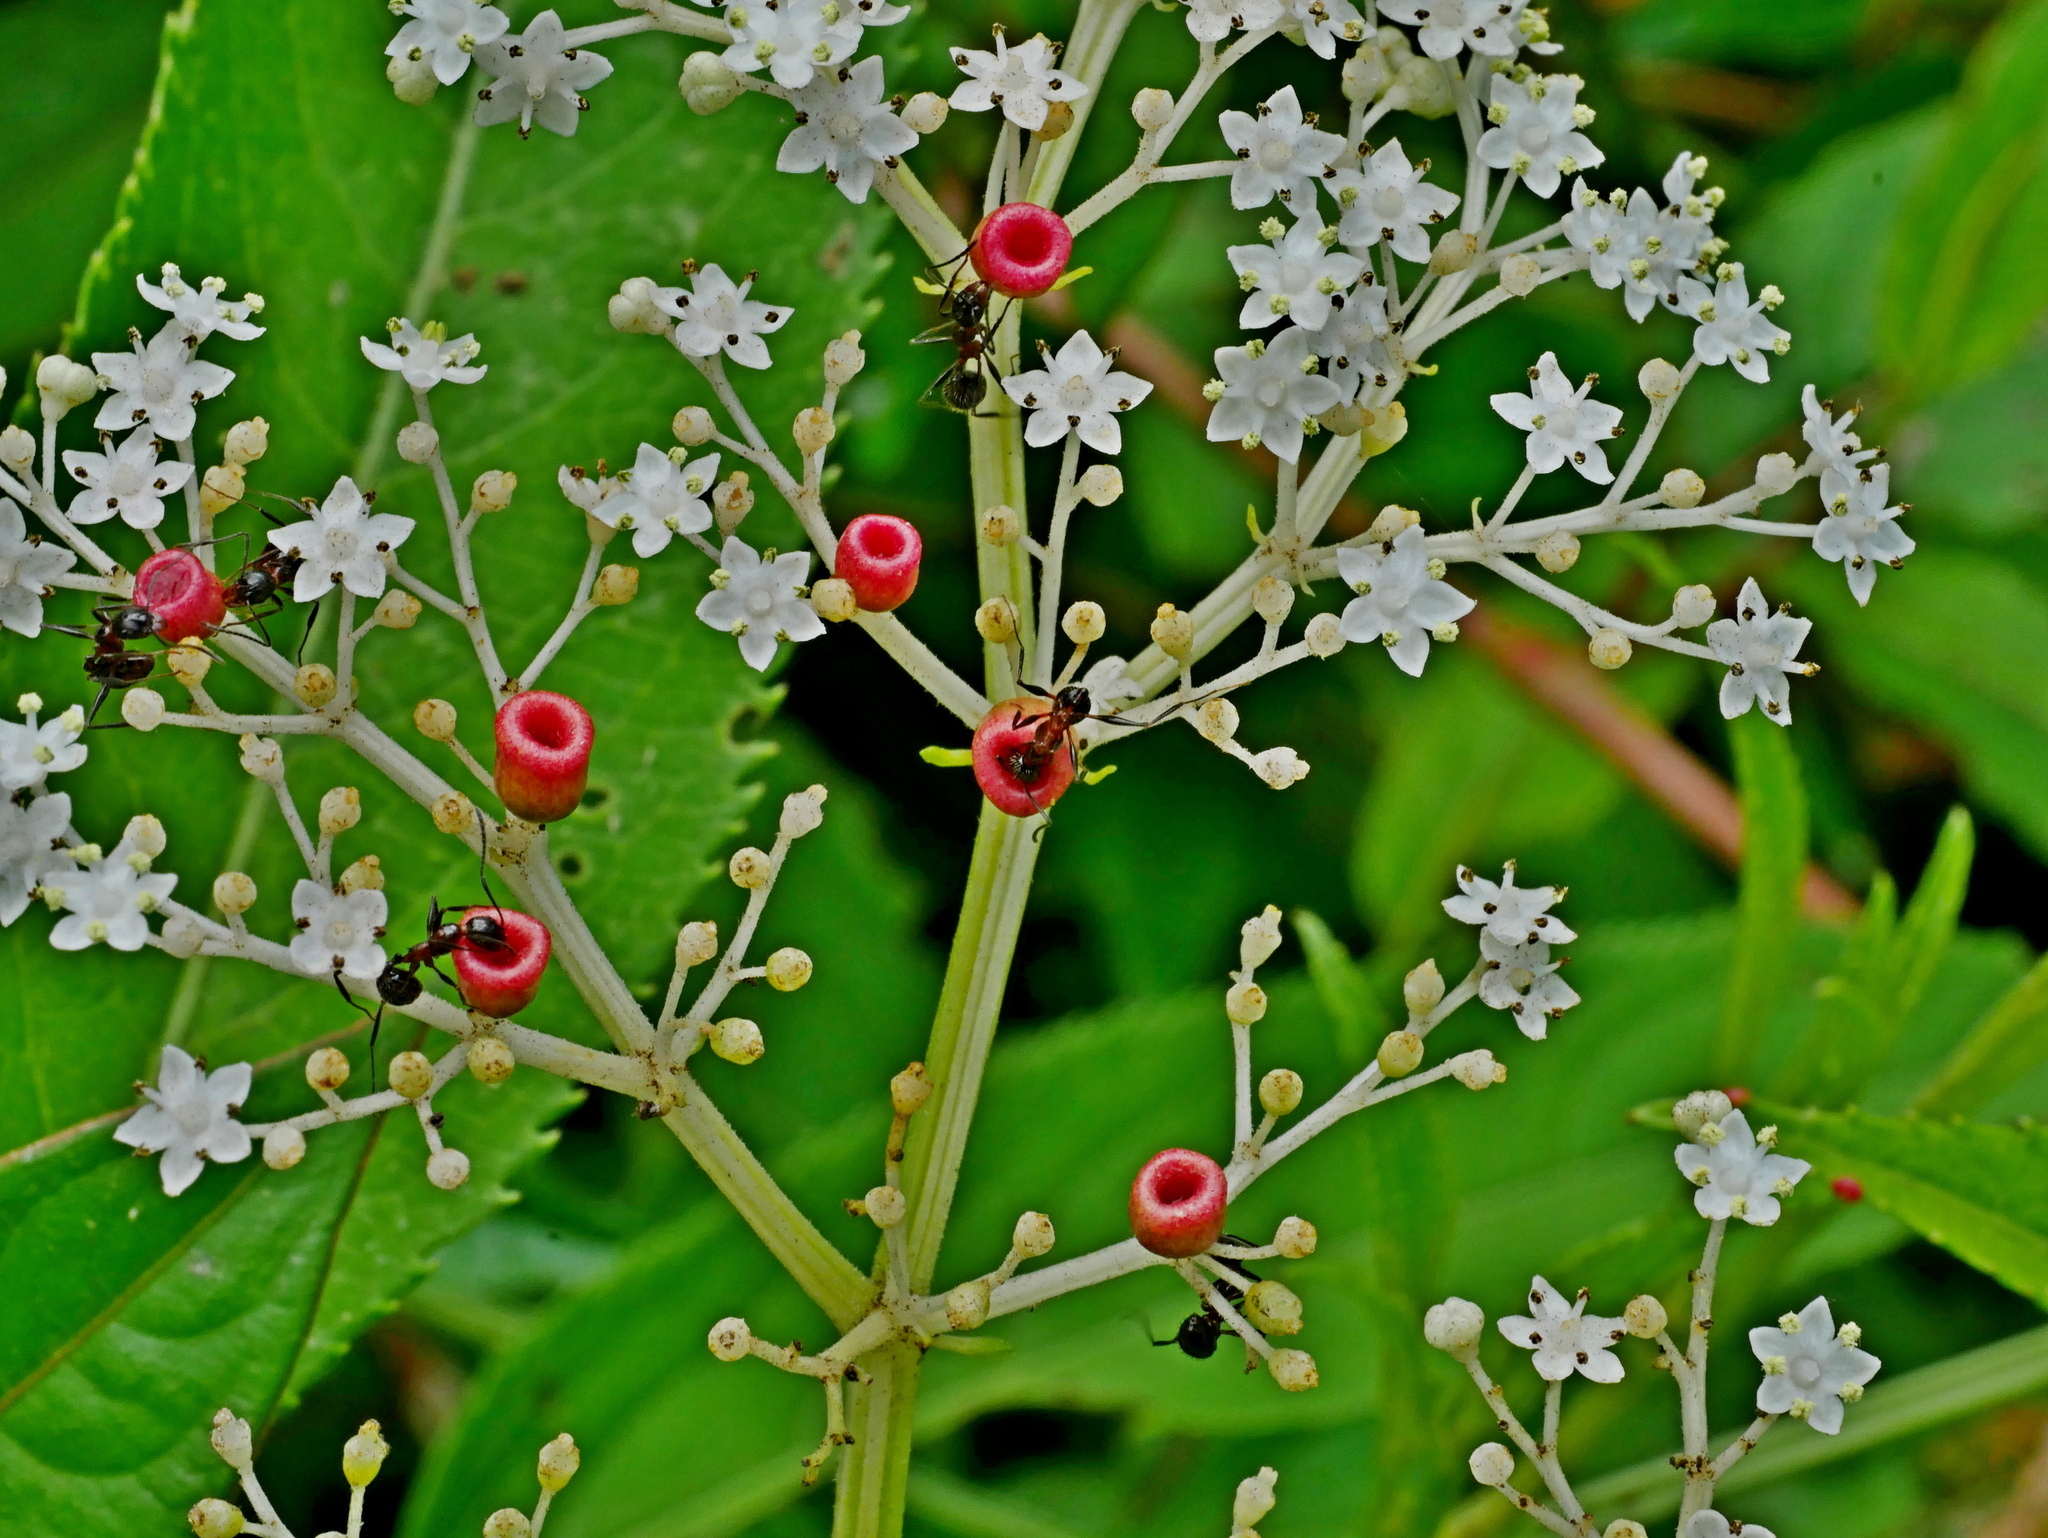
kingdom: Plantae
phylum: Tracheophyta
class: Magnoliopsida
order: Dipsacales
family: Viburnaceae
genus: Sambucus
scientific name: Sambucus javanica
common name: Chinese elder
